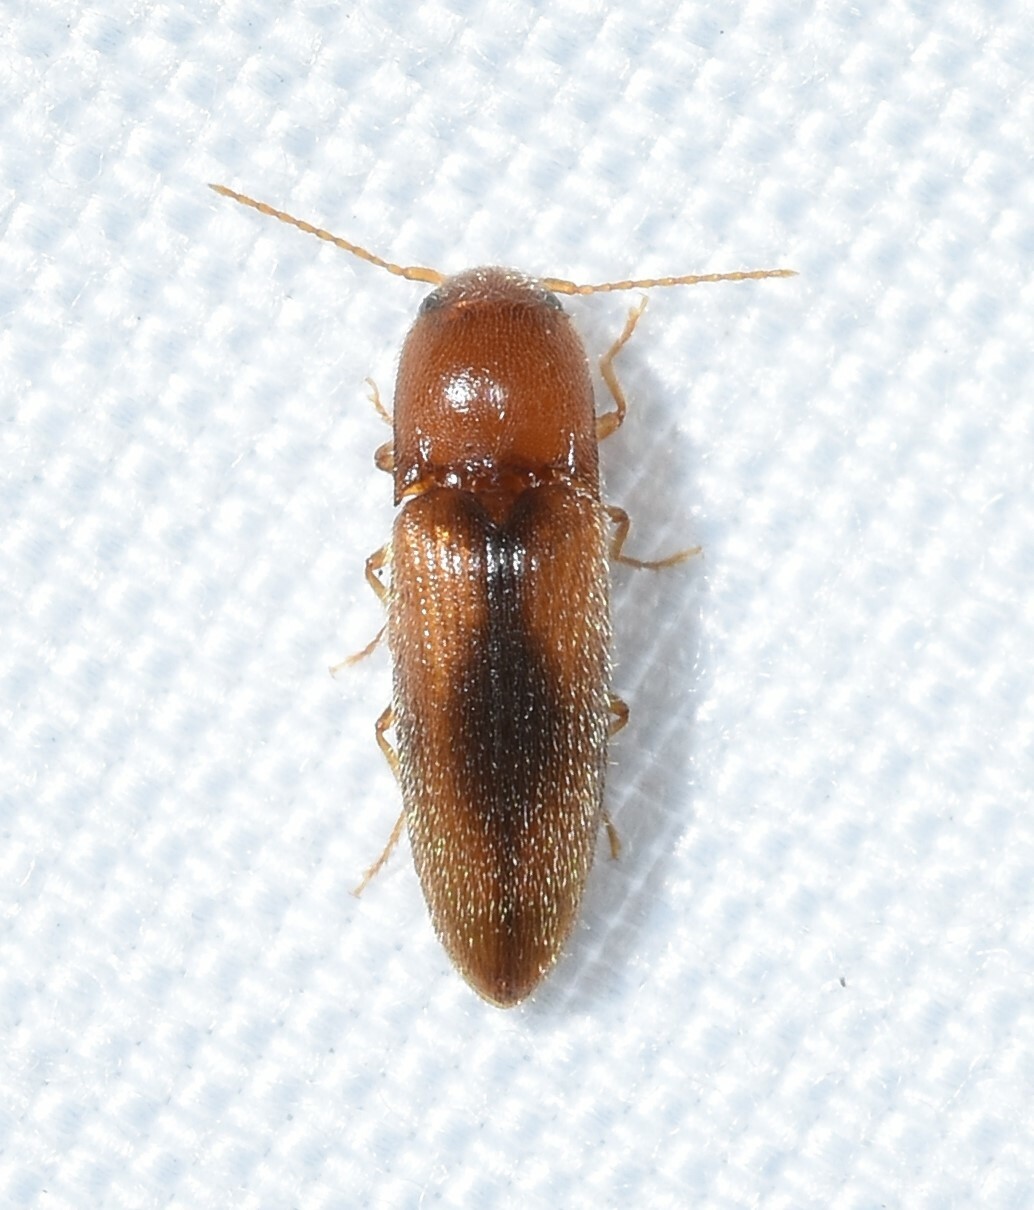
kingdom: Animalia
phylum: Arthropoda
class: Insecta
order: Coleoptera
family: Elateridae
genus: Glyphonyx
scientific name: Glyphonyx
